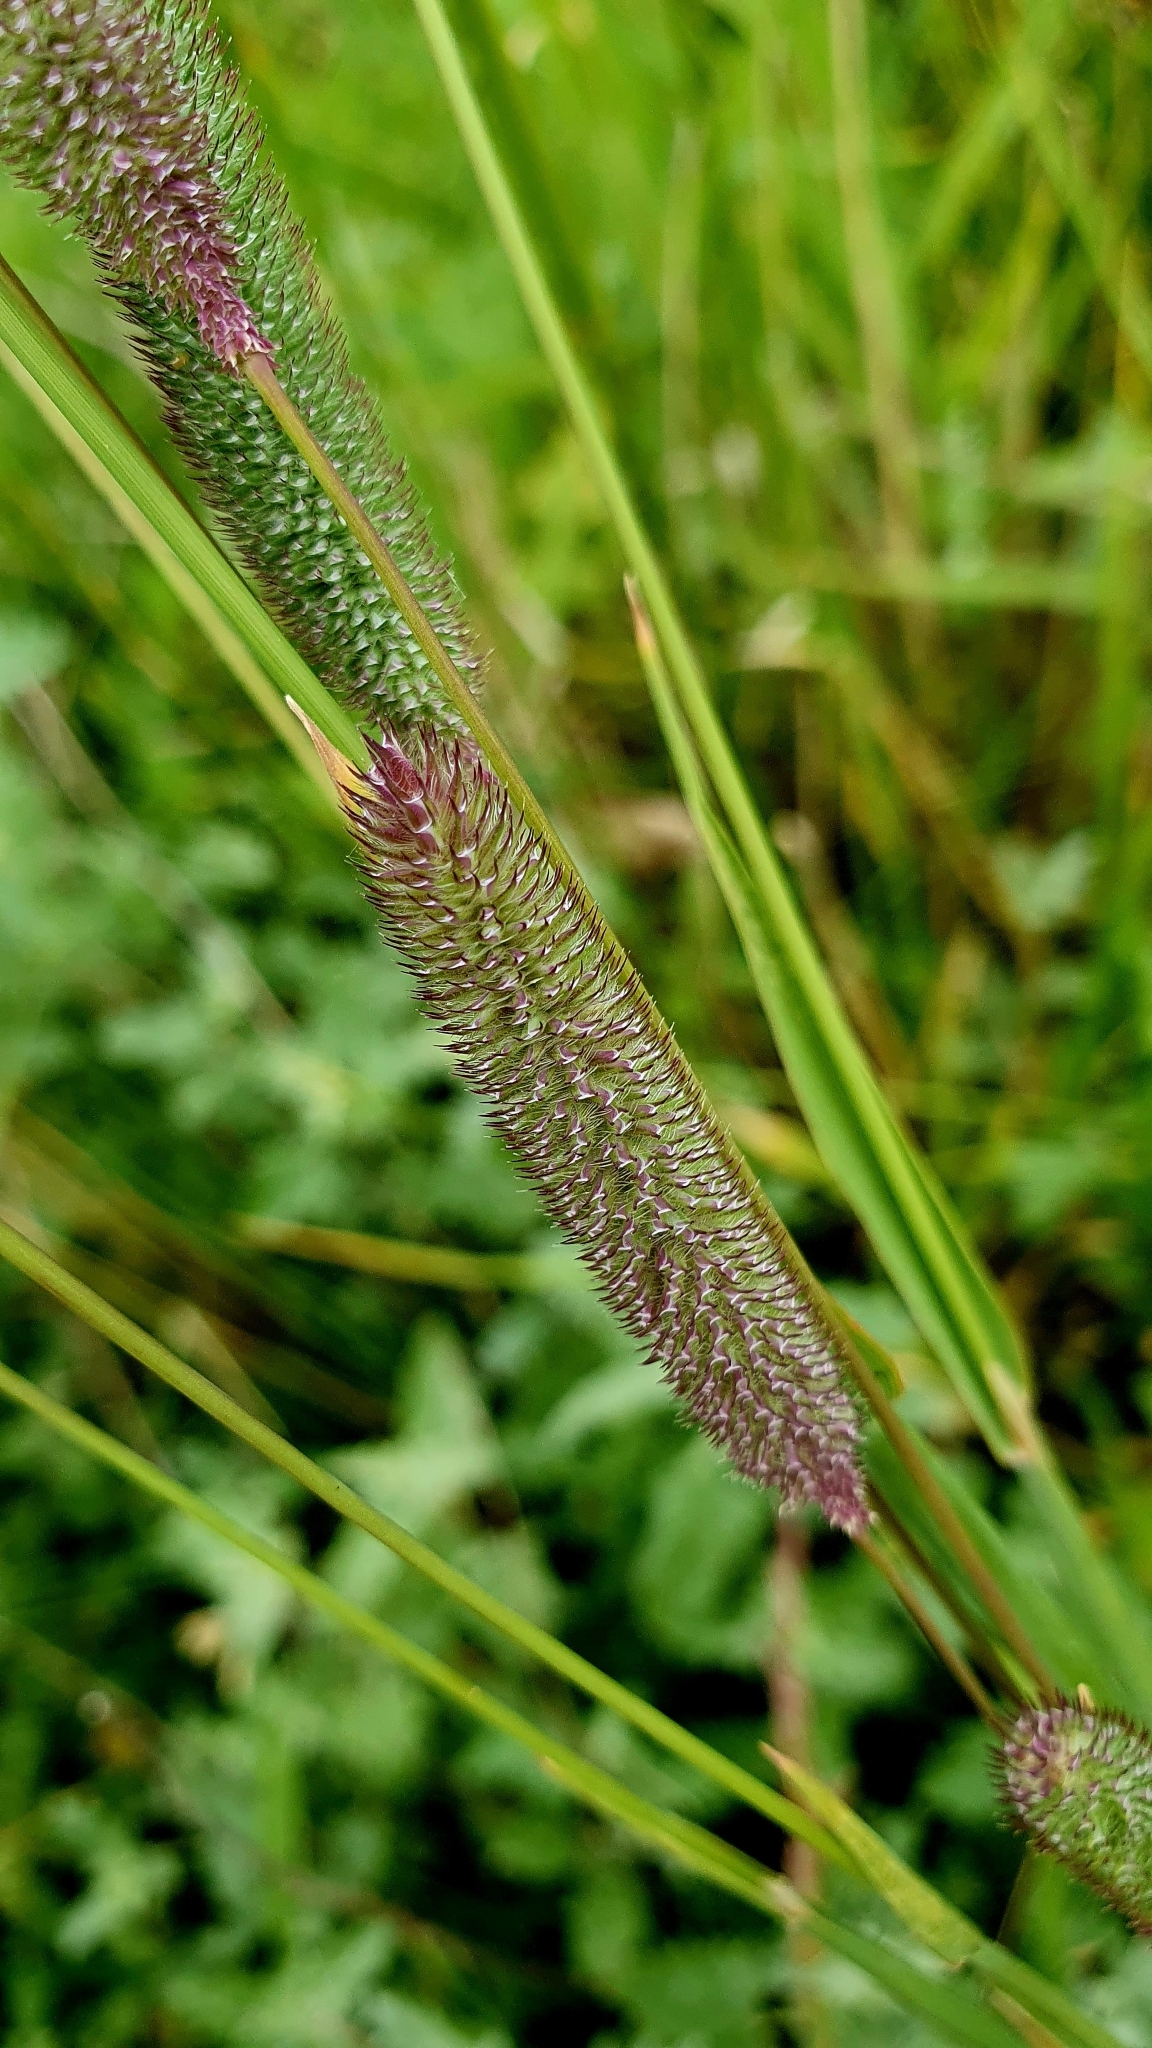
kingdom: Plantae
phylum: Tracheophyta
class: Liliopsida
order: Poales
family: Poaceae
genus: Phleum
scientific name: Phleum pratense
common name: Timothy grass
